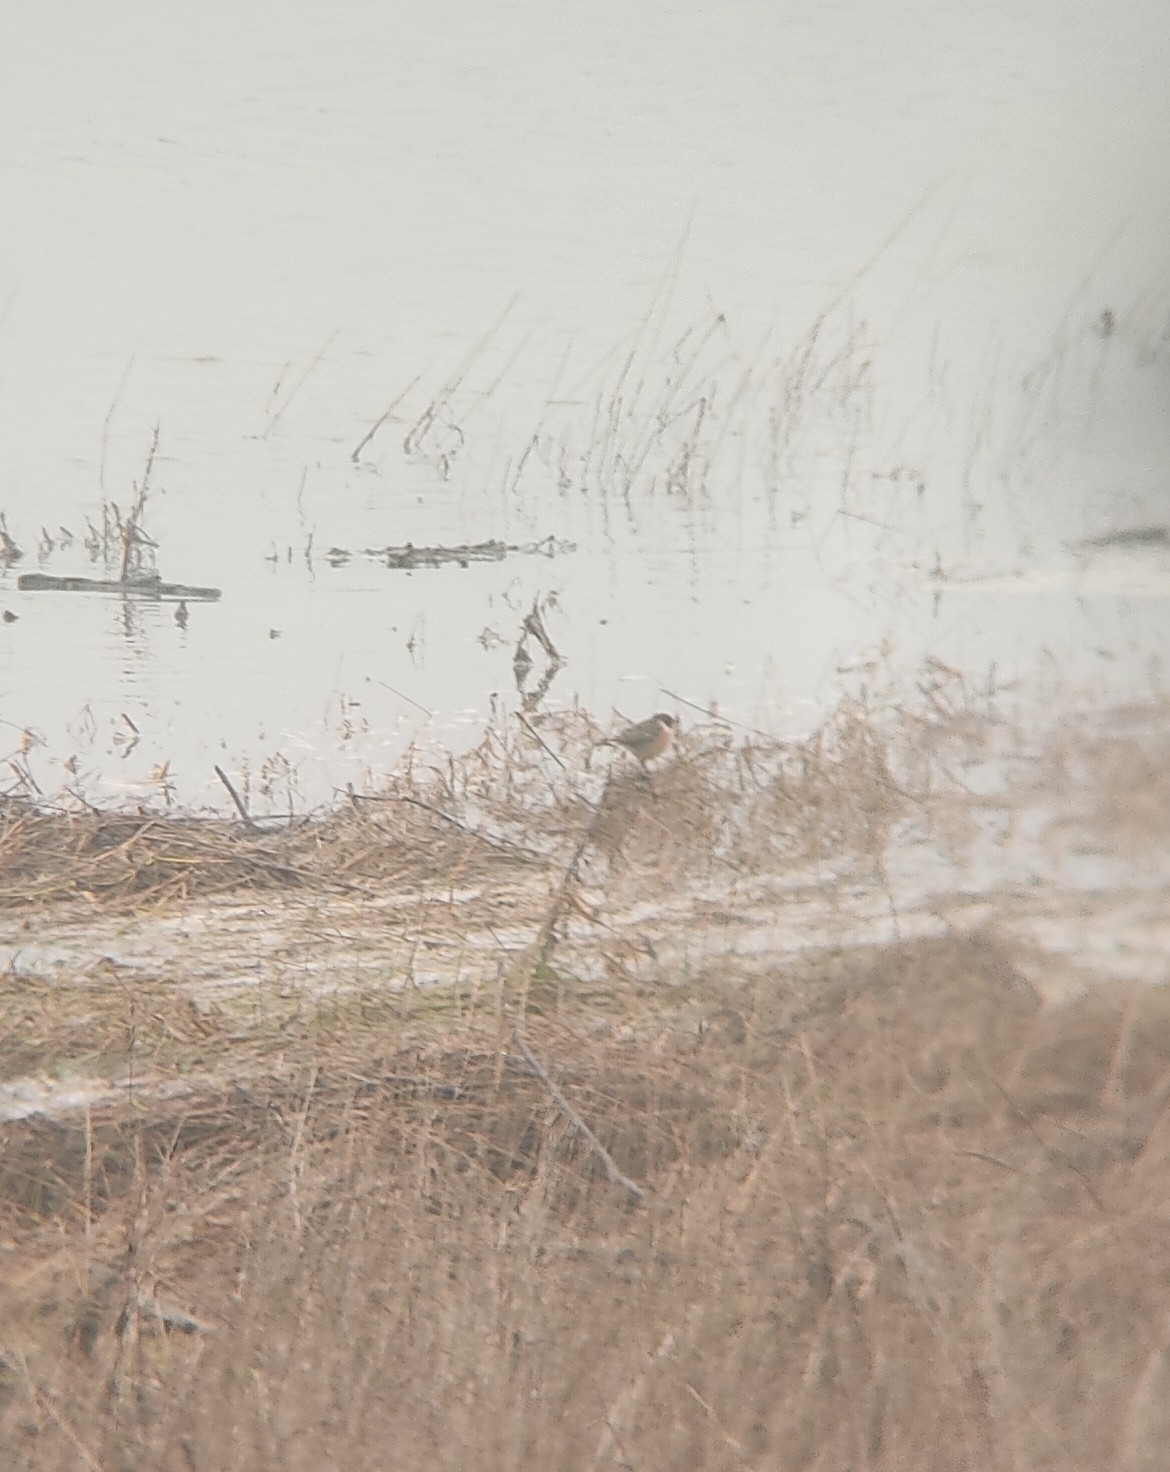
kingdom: Animalia
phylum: Chordata
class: Aves
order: Passeriformes
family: Muscicapidae
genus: Saxicola
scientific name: Saxicola rubicola
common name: European stonechat
